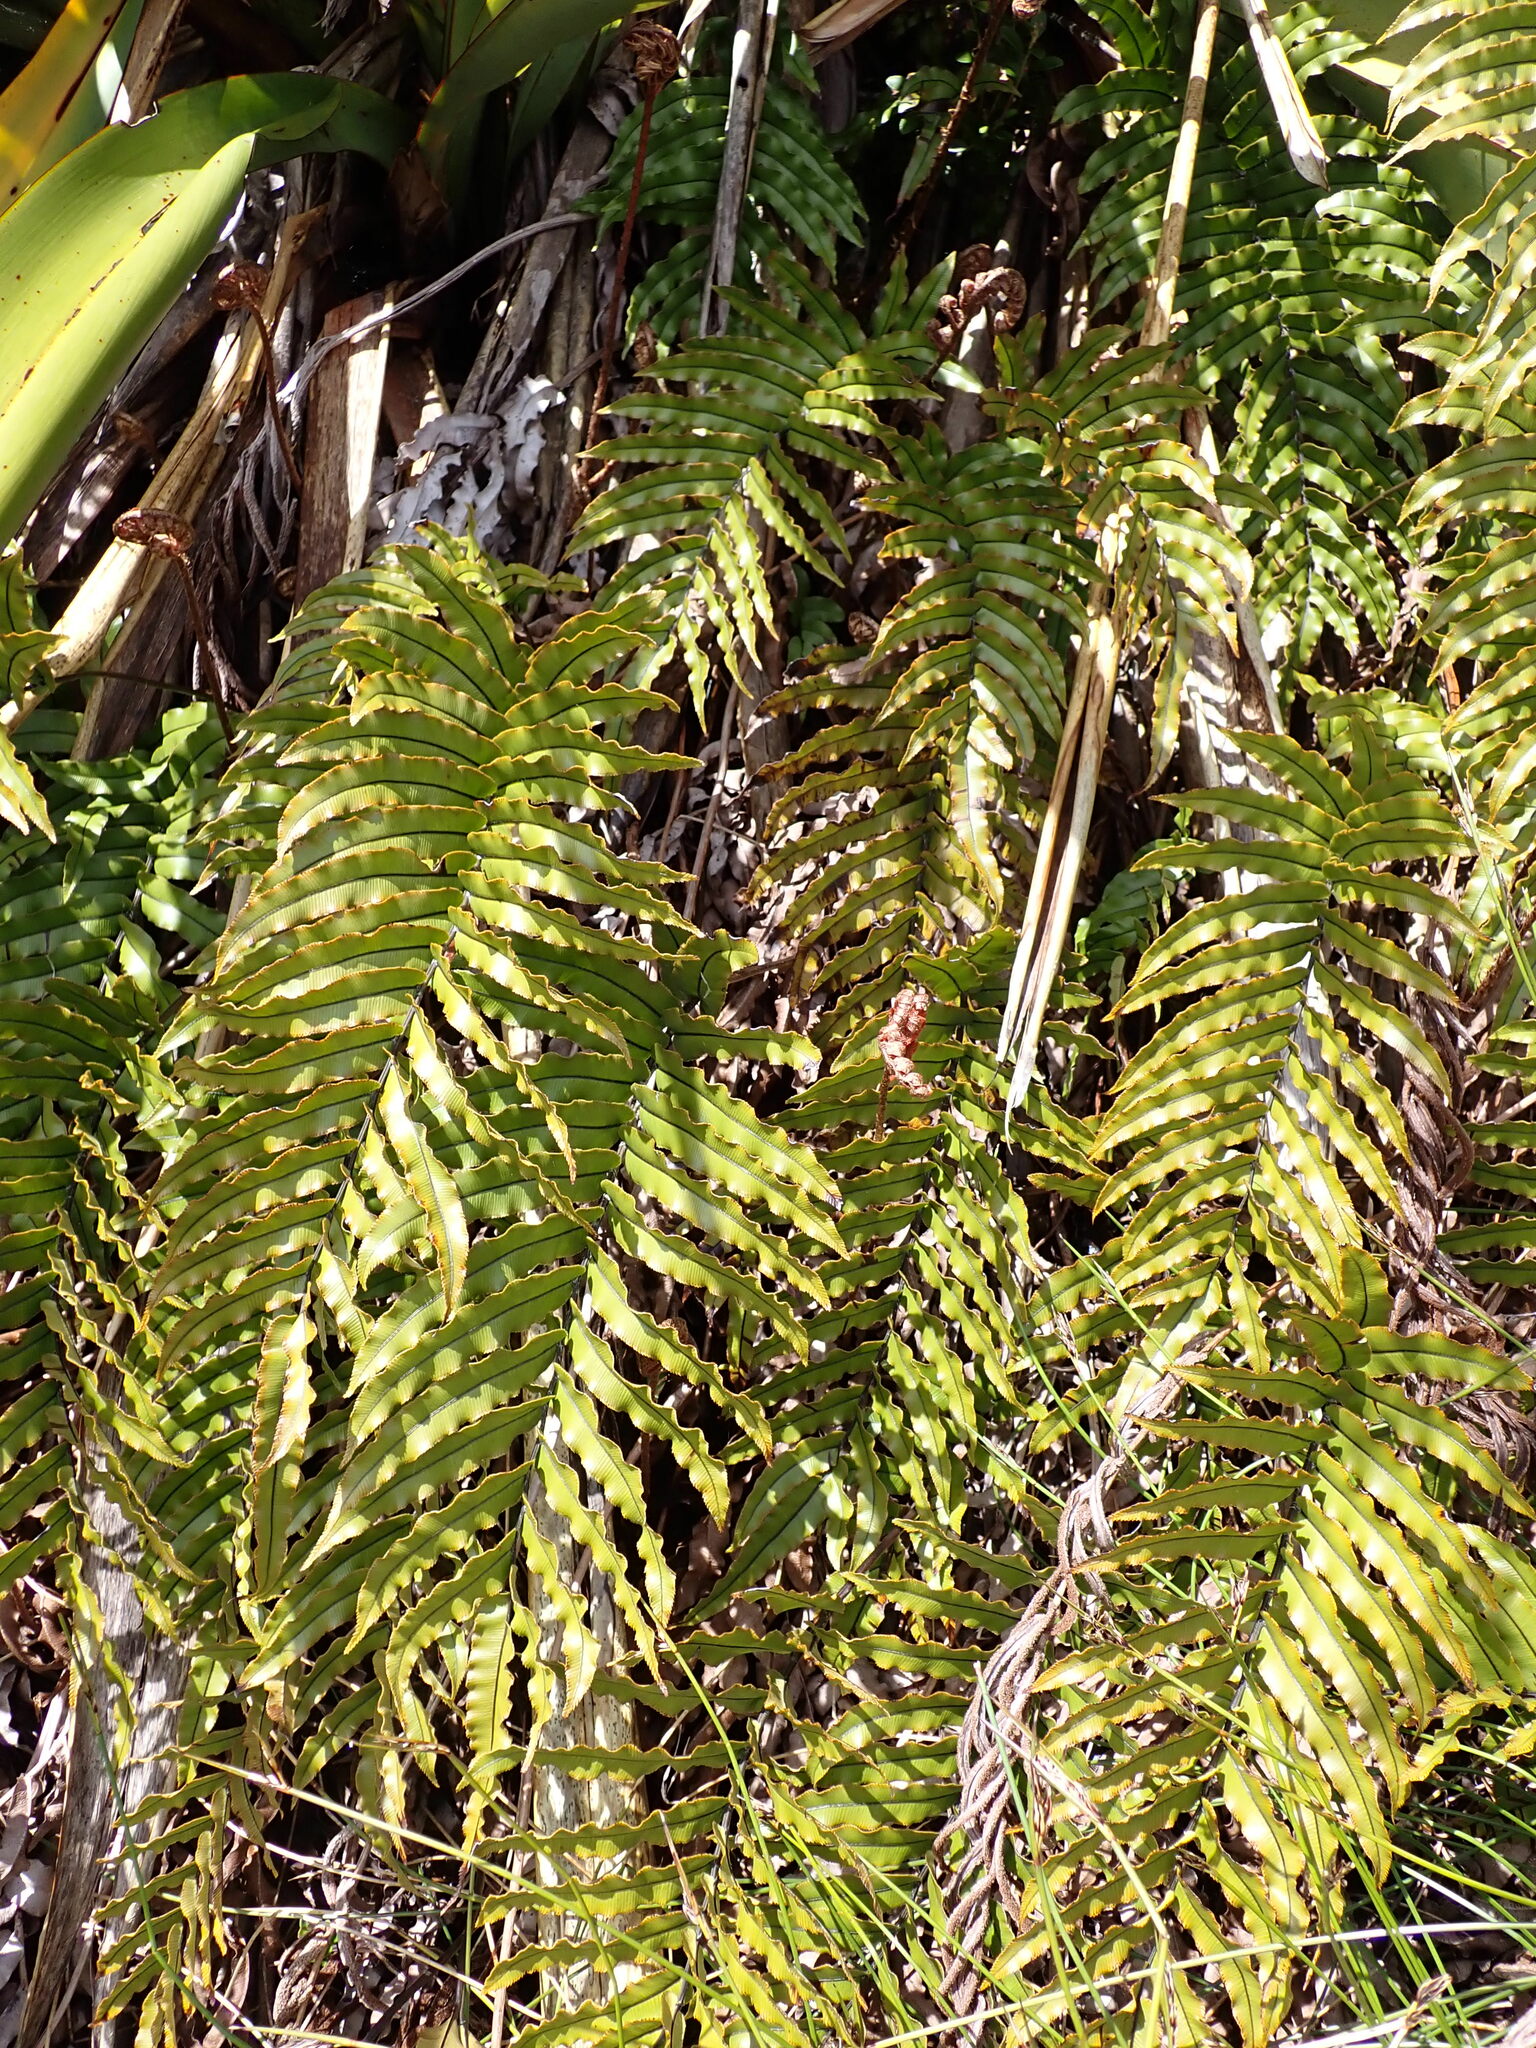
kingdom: Plantae
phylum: Tracheophyta
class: Polypodiopsida
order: Polypodiales
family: Blechnaceae
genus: Parablechnum
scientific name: Parablechnum montanum
